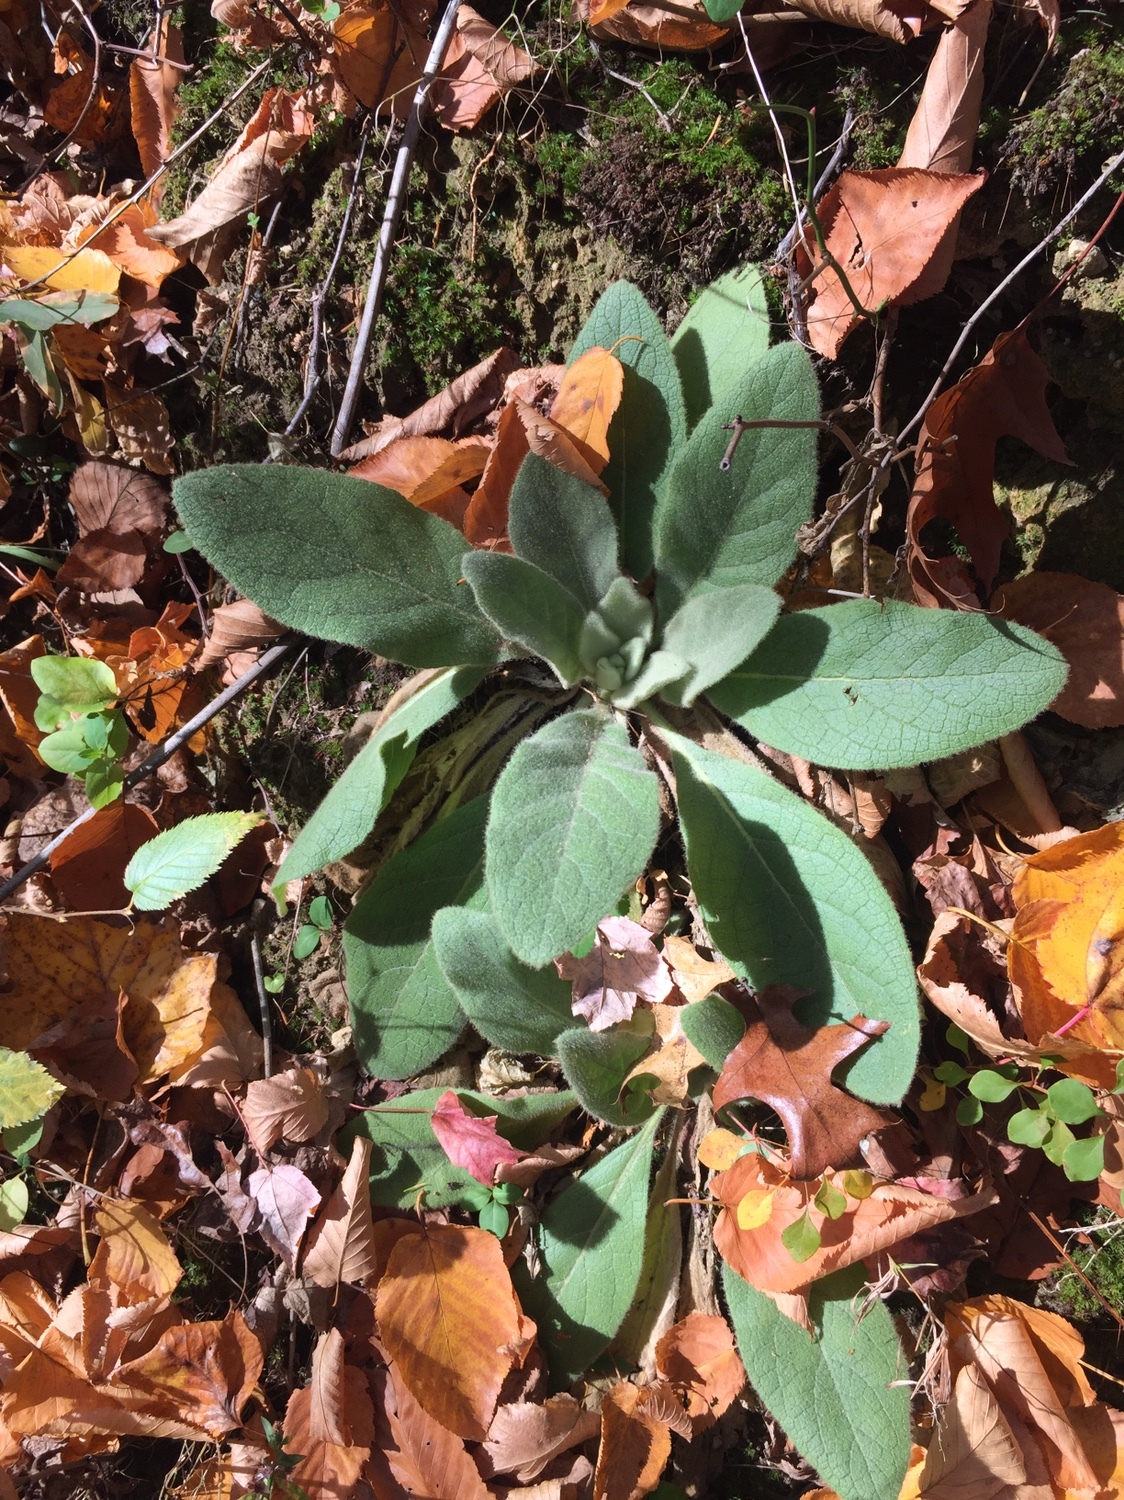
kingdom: Plantae
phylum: Tracheophyta
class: Magnoliopsida
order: Lamiales
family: Scrophulariaceae
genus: Verbascum
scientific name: Verbascum thapsus
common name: Common mullein
